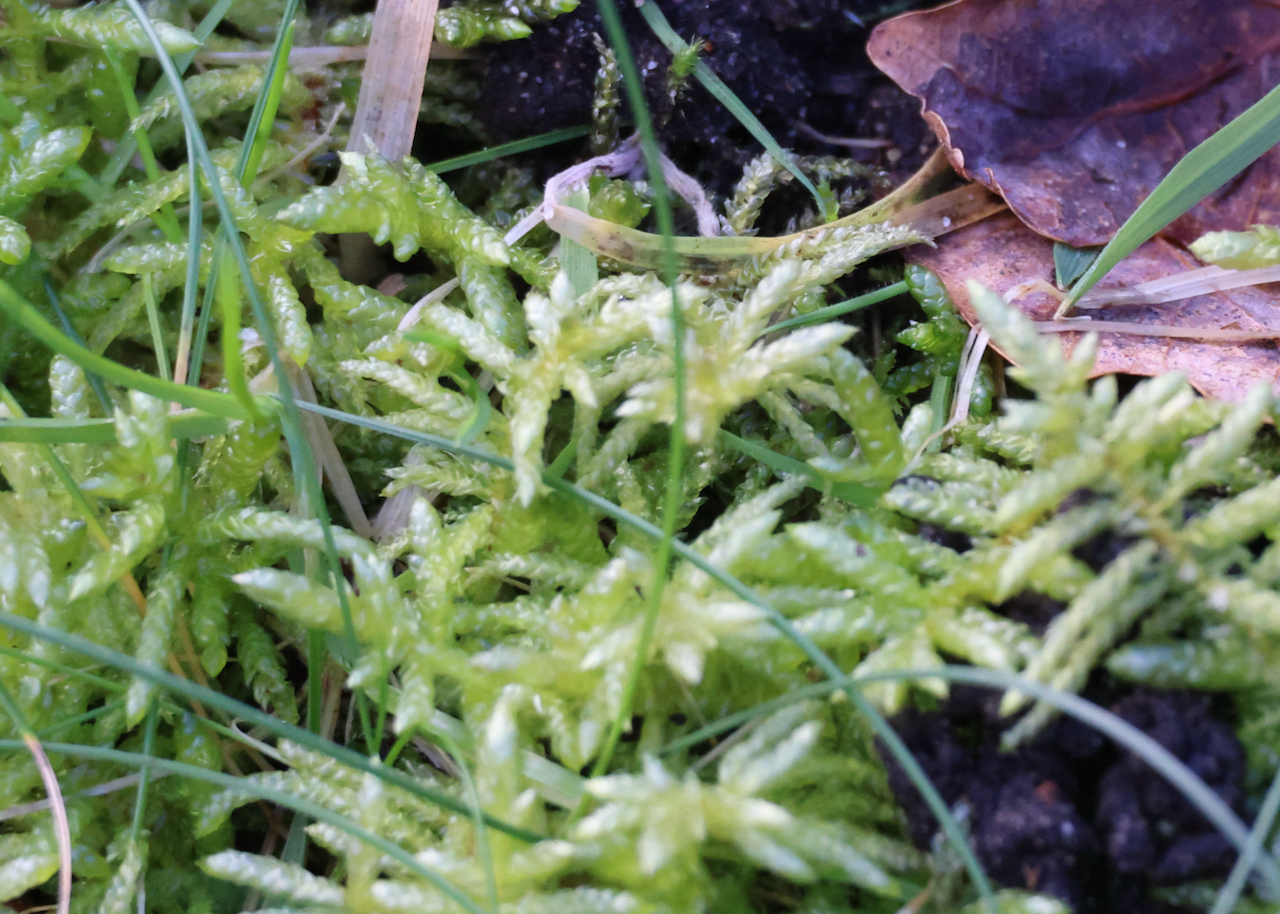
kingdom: Plantae
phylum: Bryophyta
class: Bryopsida
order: Hypnales
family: Brachytheciaceae
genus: Pseudoscleropodium
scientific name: Pseudoscleropodium purum
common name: Neat feather-moss
